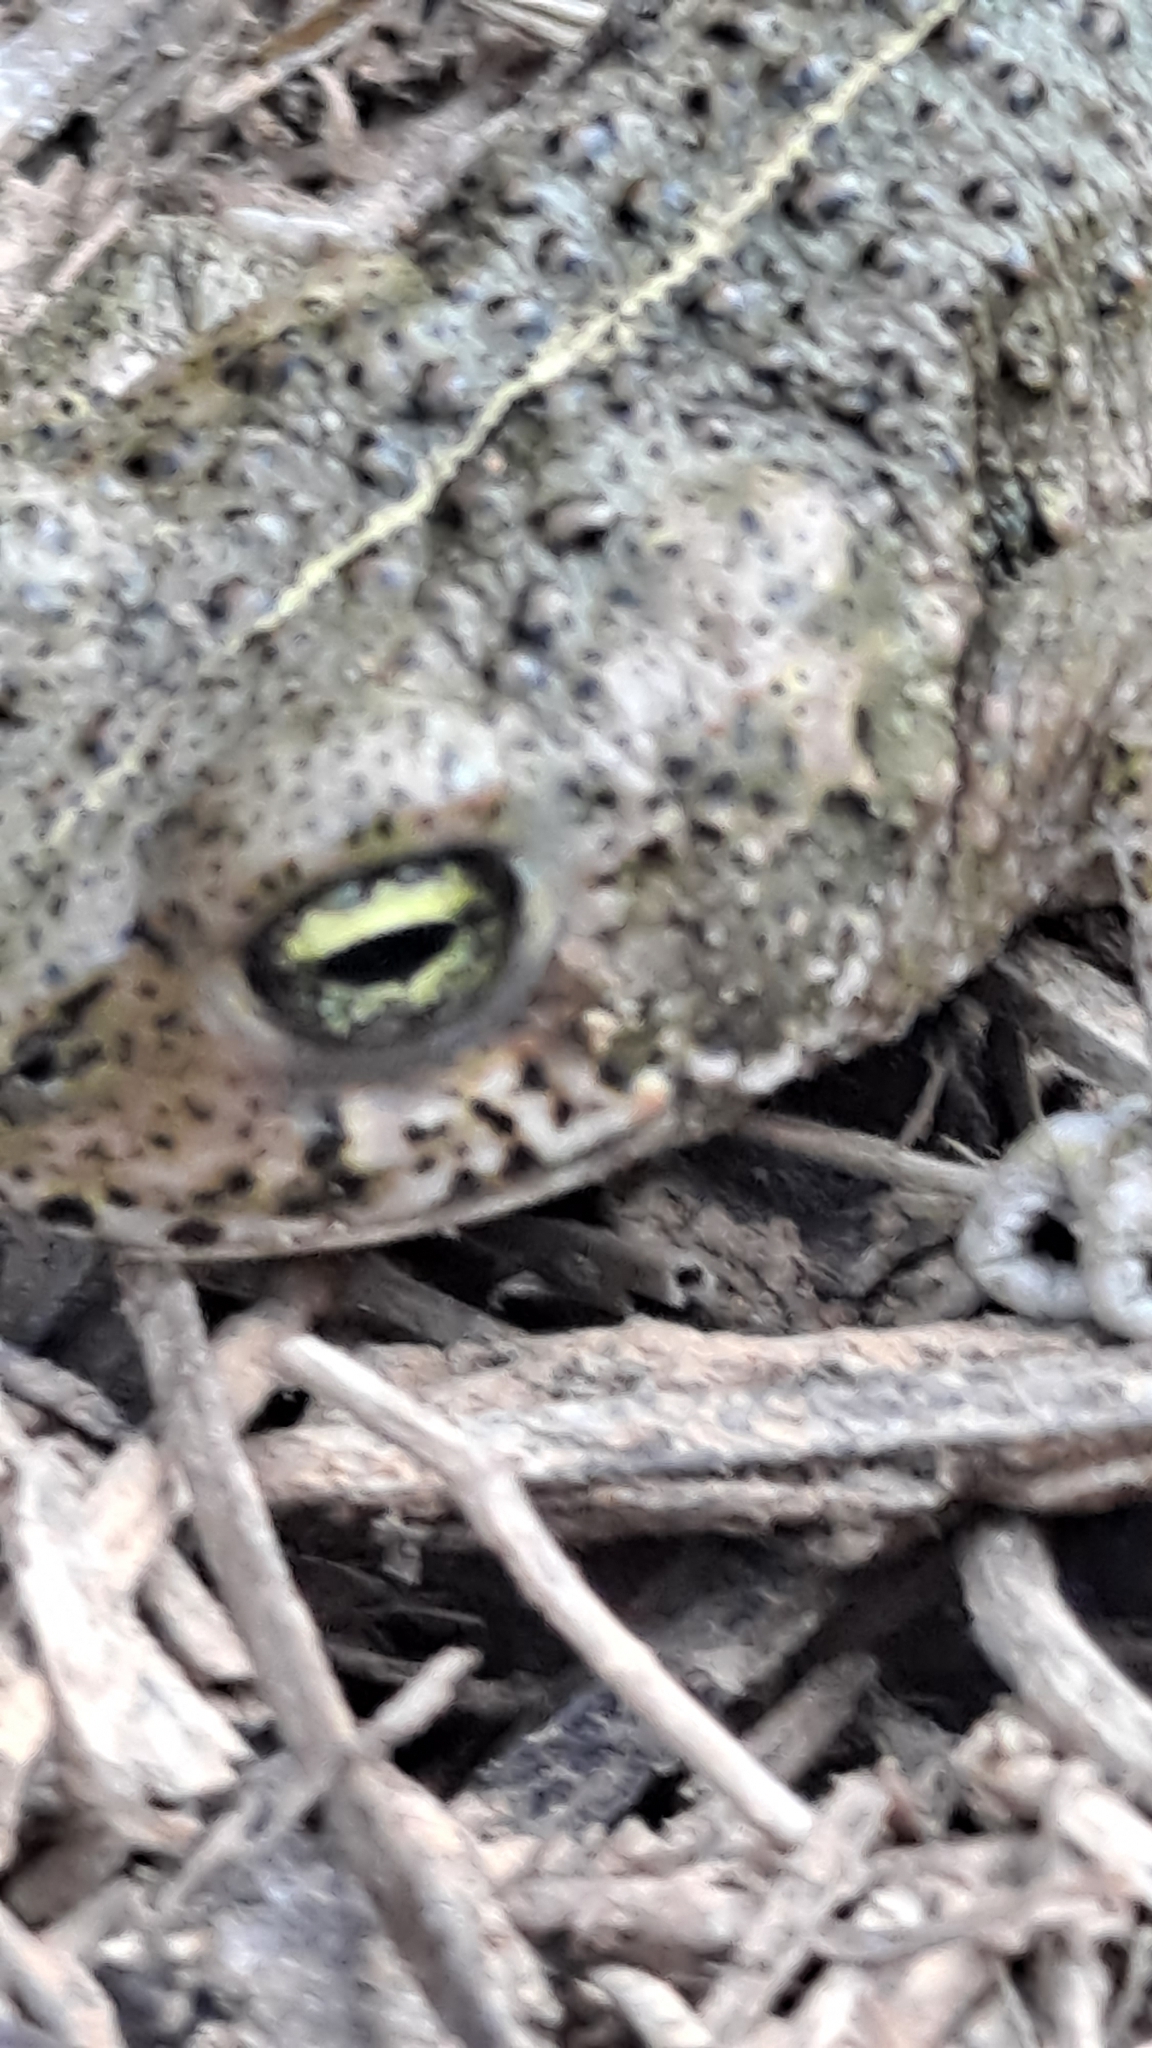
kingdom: Animalia
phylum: Chordata
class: Amphibia
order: Anura
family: Bufonidae
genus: Epidalea
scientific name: Epidalea calamita
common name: Natterjack toad
